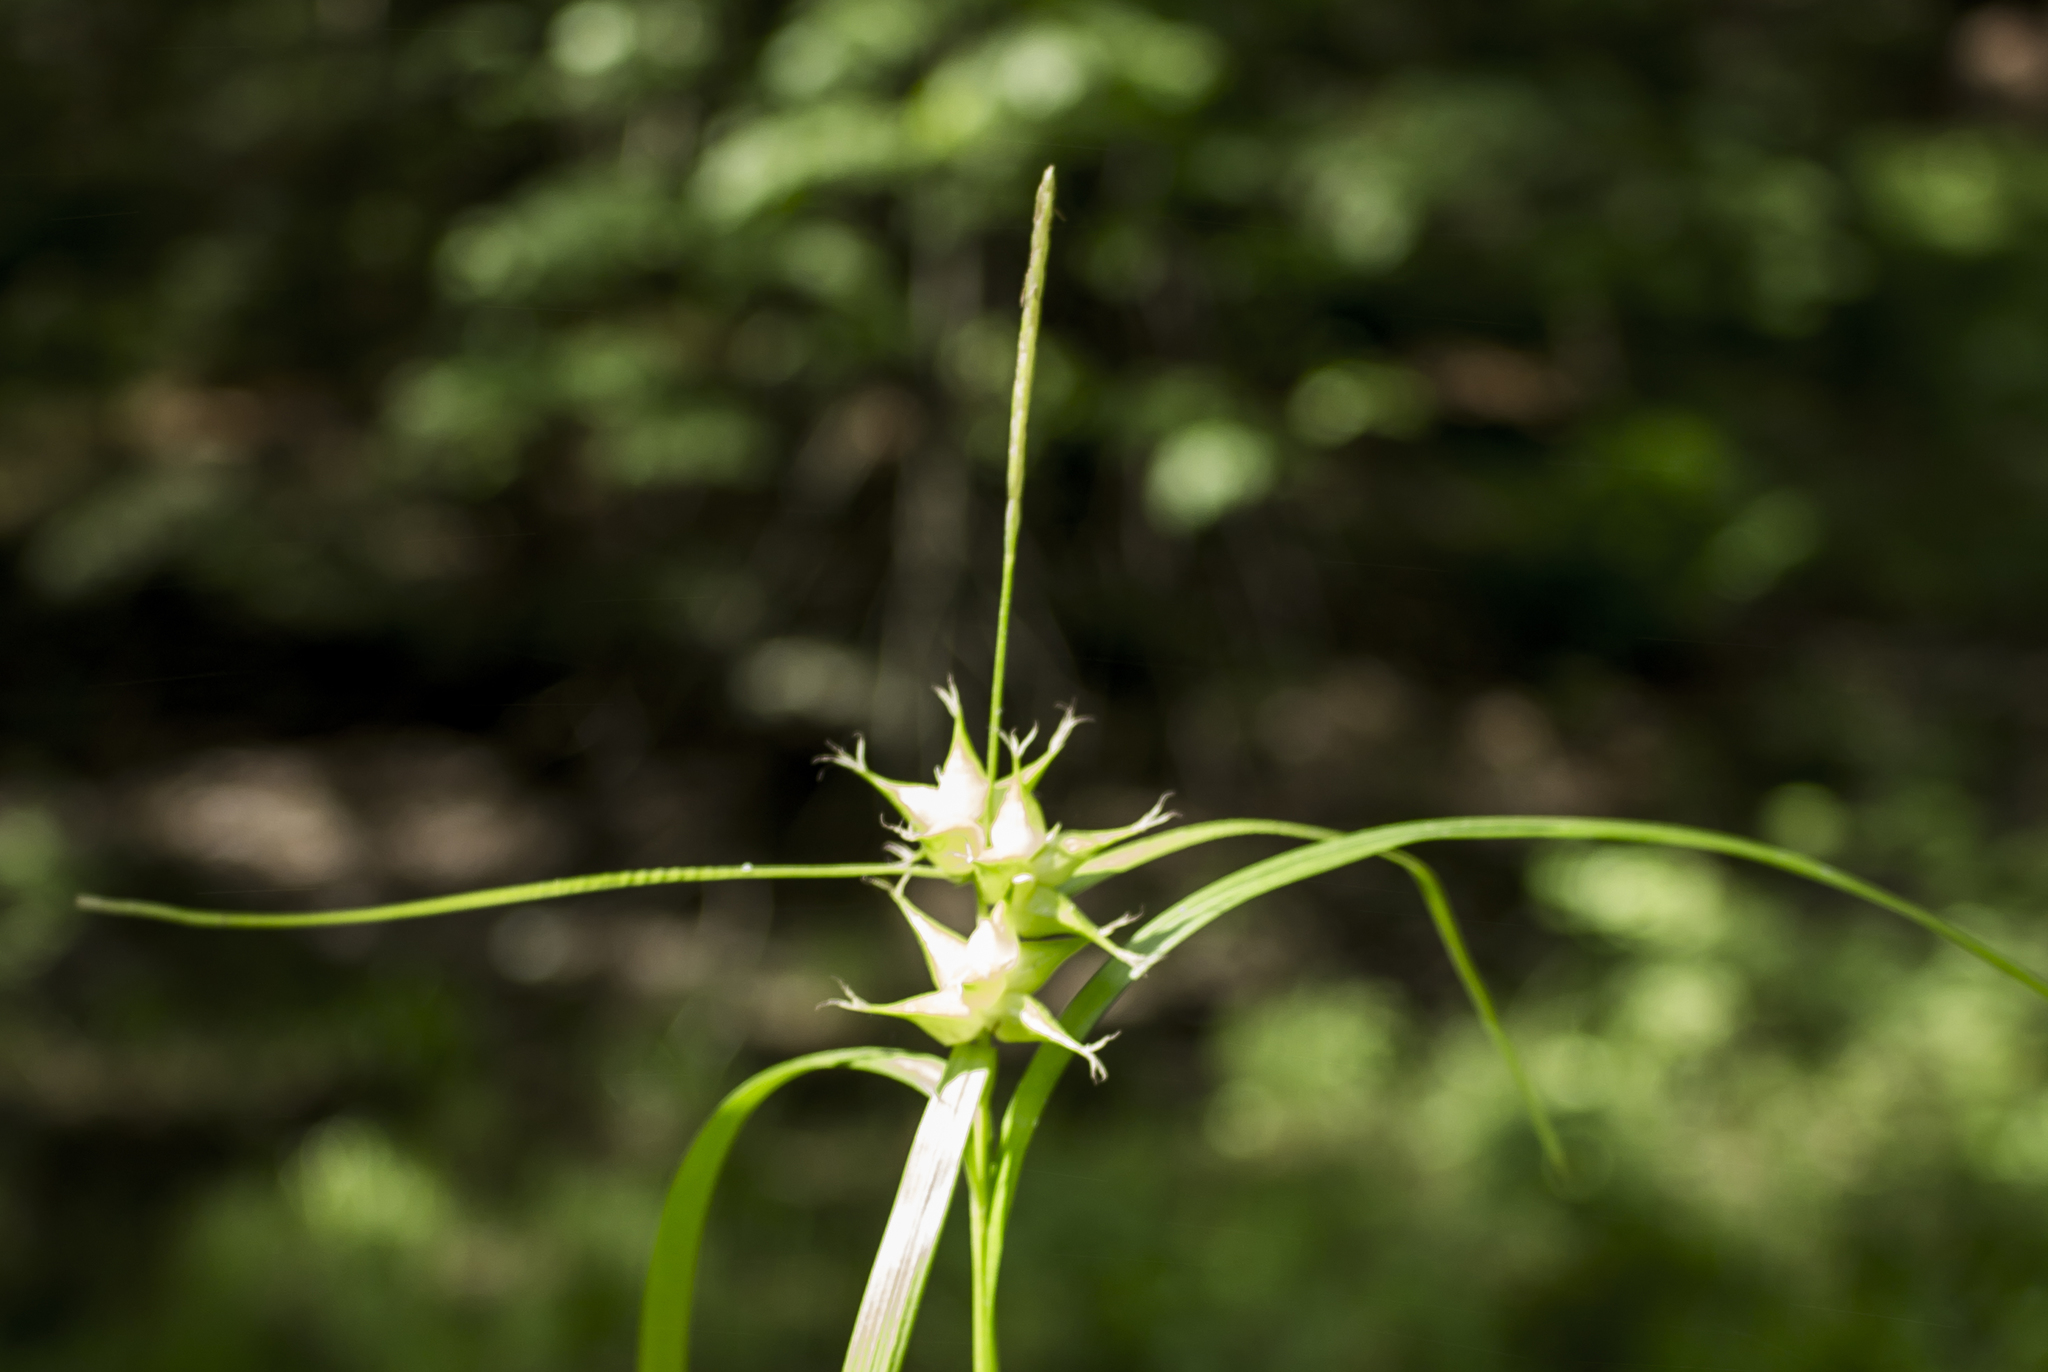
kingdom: Plantae
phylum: Tracheophyta
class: Liliopsida
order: Poales
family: Cyperaceae
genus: Carex
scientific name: Carex intumescens
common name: Greater bladder sedge
